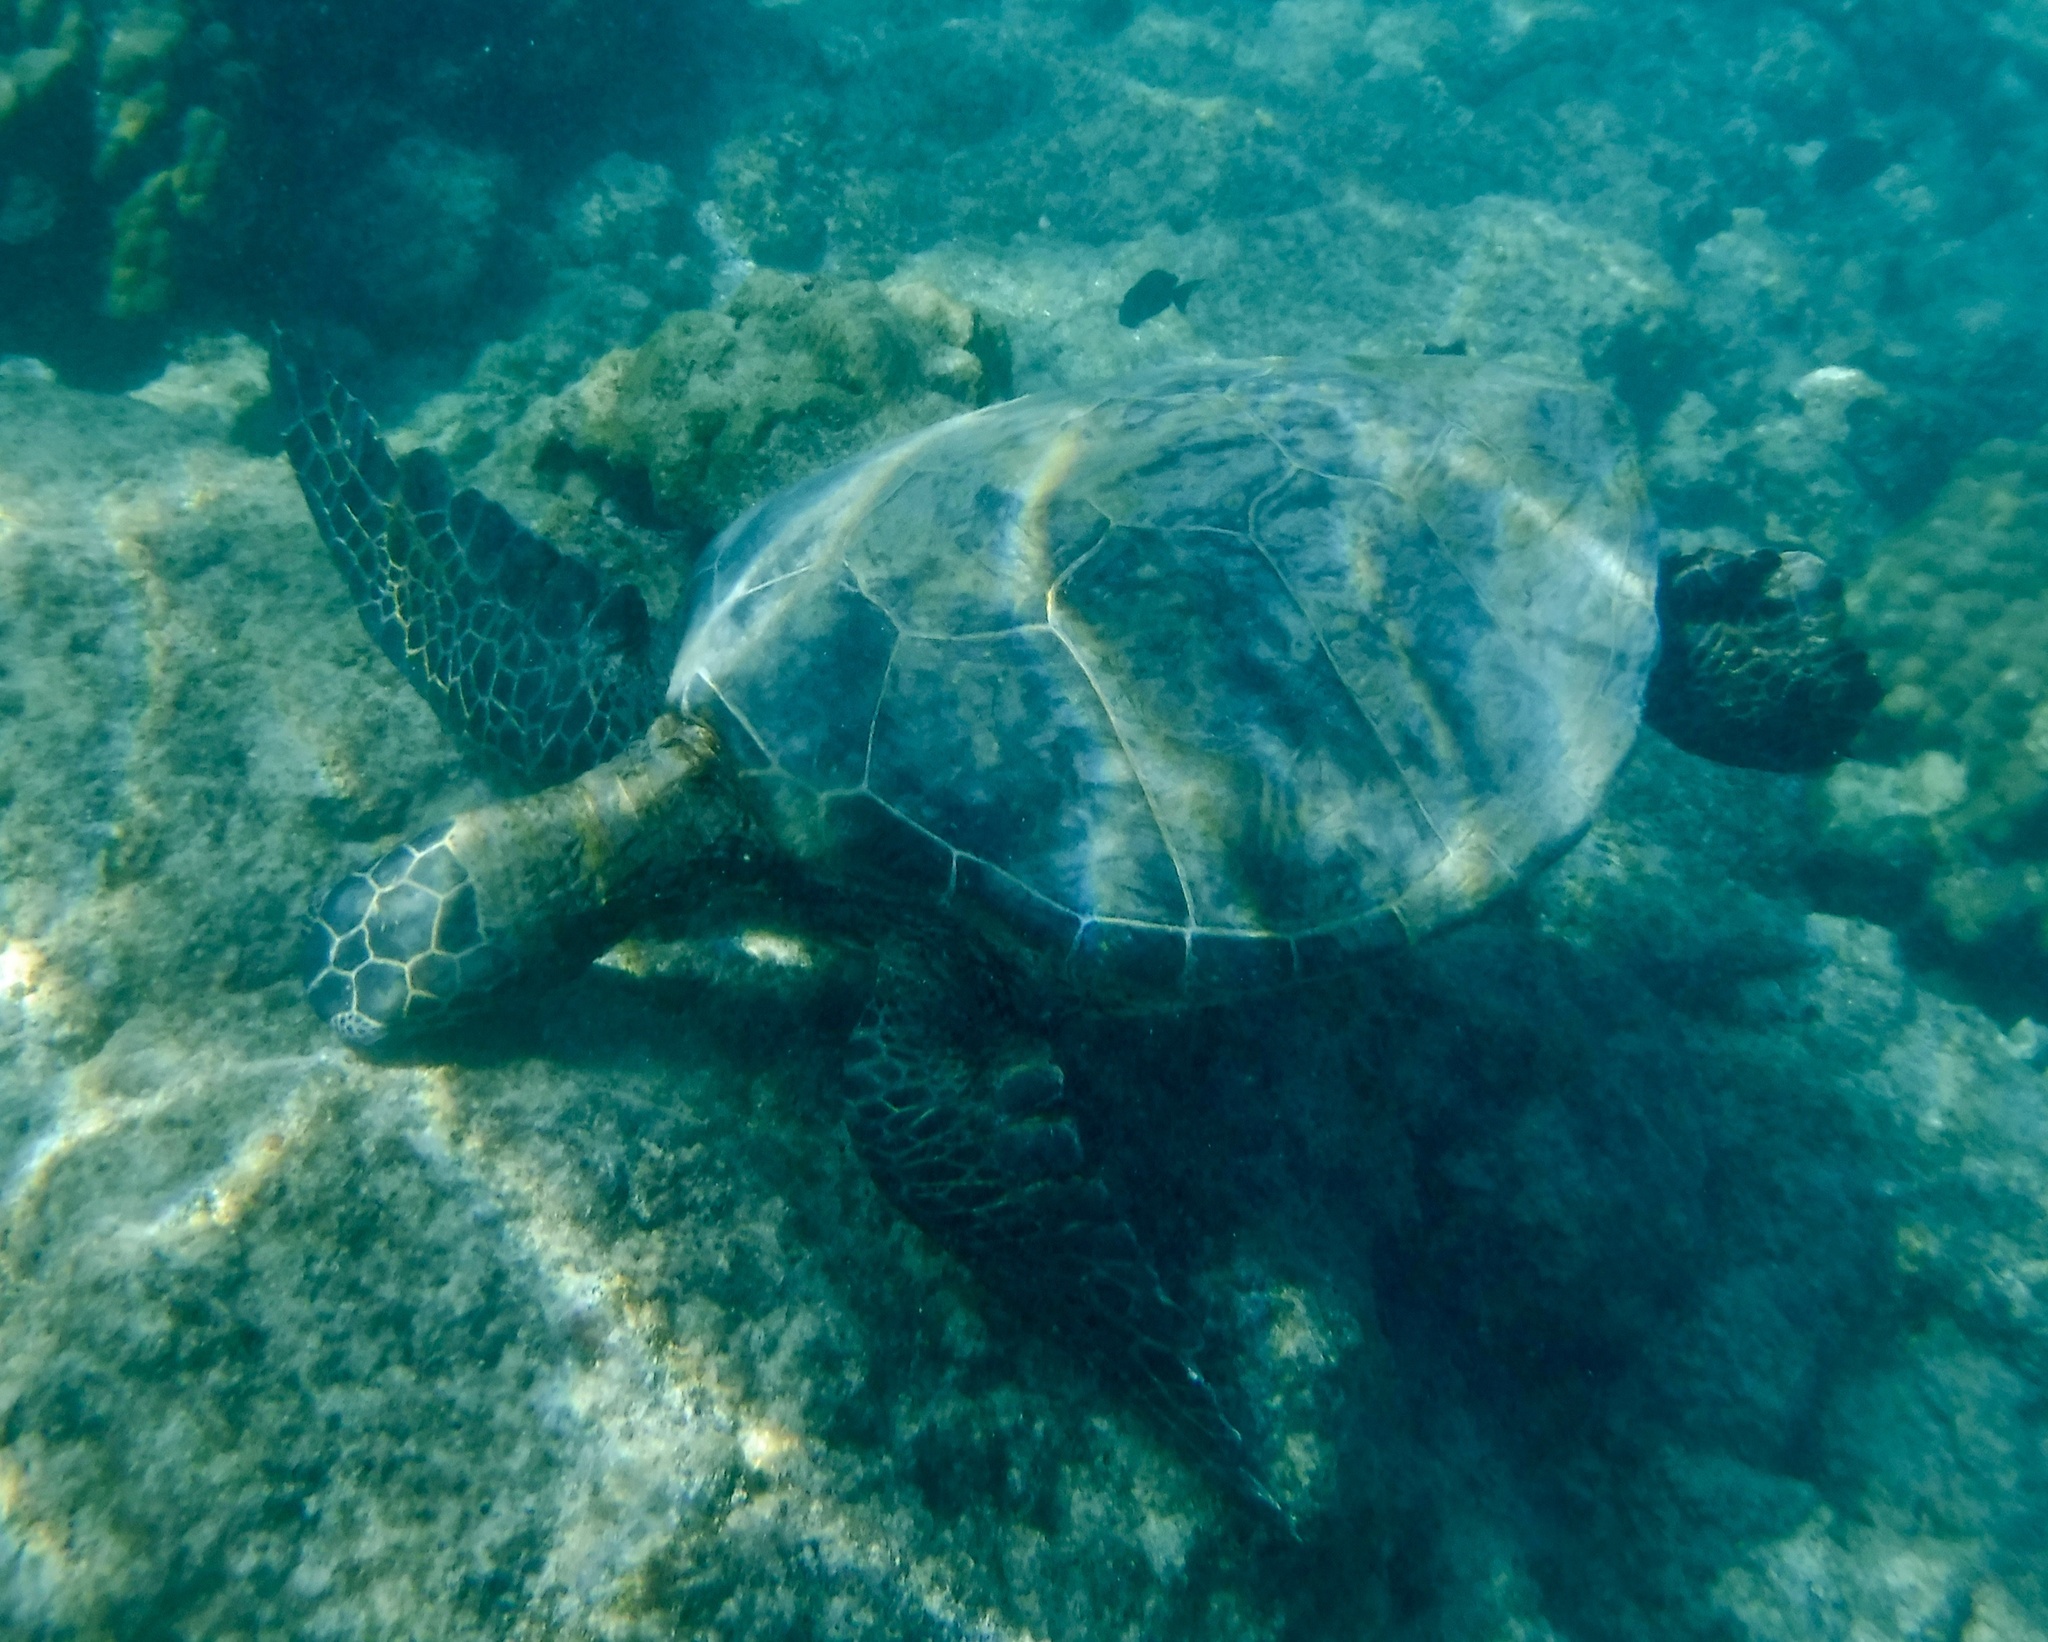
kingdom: Animalia
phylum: Chordata
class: Testudines
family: Cheloniidae
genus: Chelonia
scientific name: Chelonia mydas
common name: Green turtle
